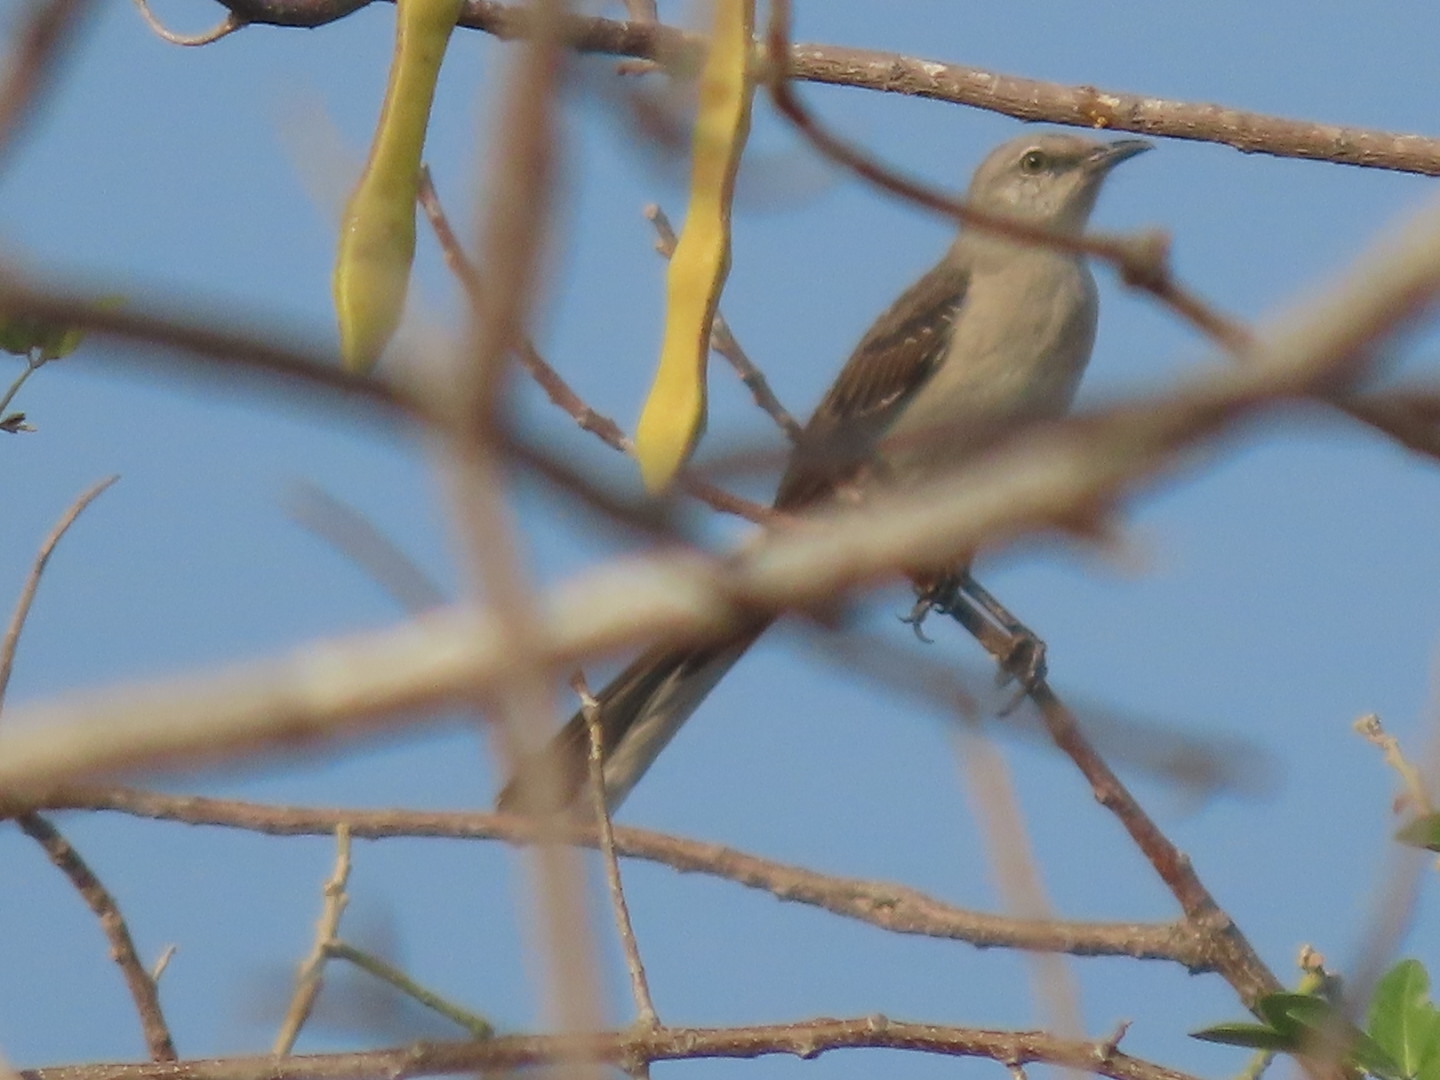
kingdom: Animalia
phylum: Chordata
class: Aves
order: Passeriformes
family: Mimidae
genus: Mimus
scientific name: Mimus gilvus
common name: Tropical mockingbird
